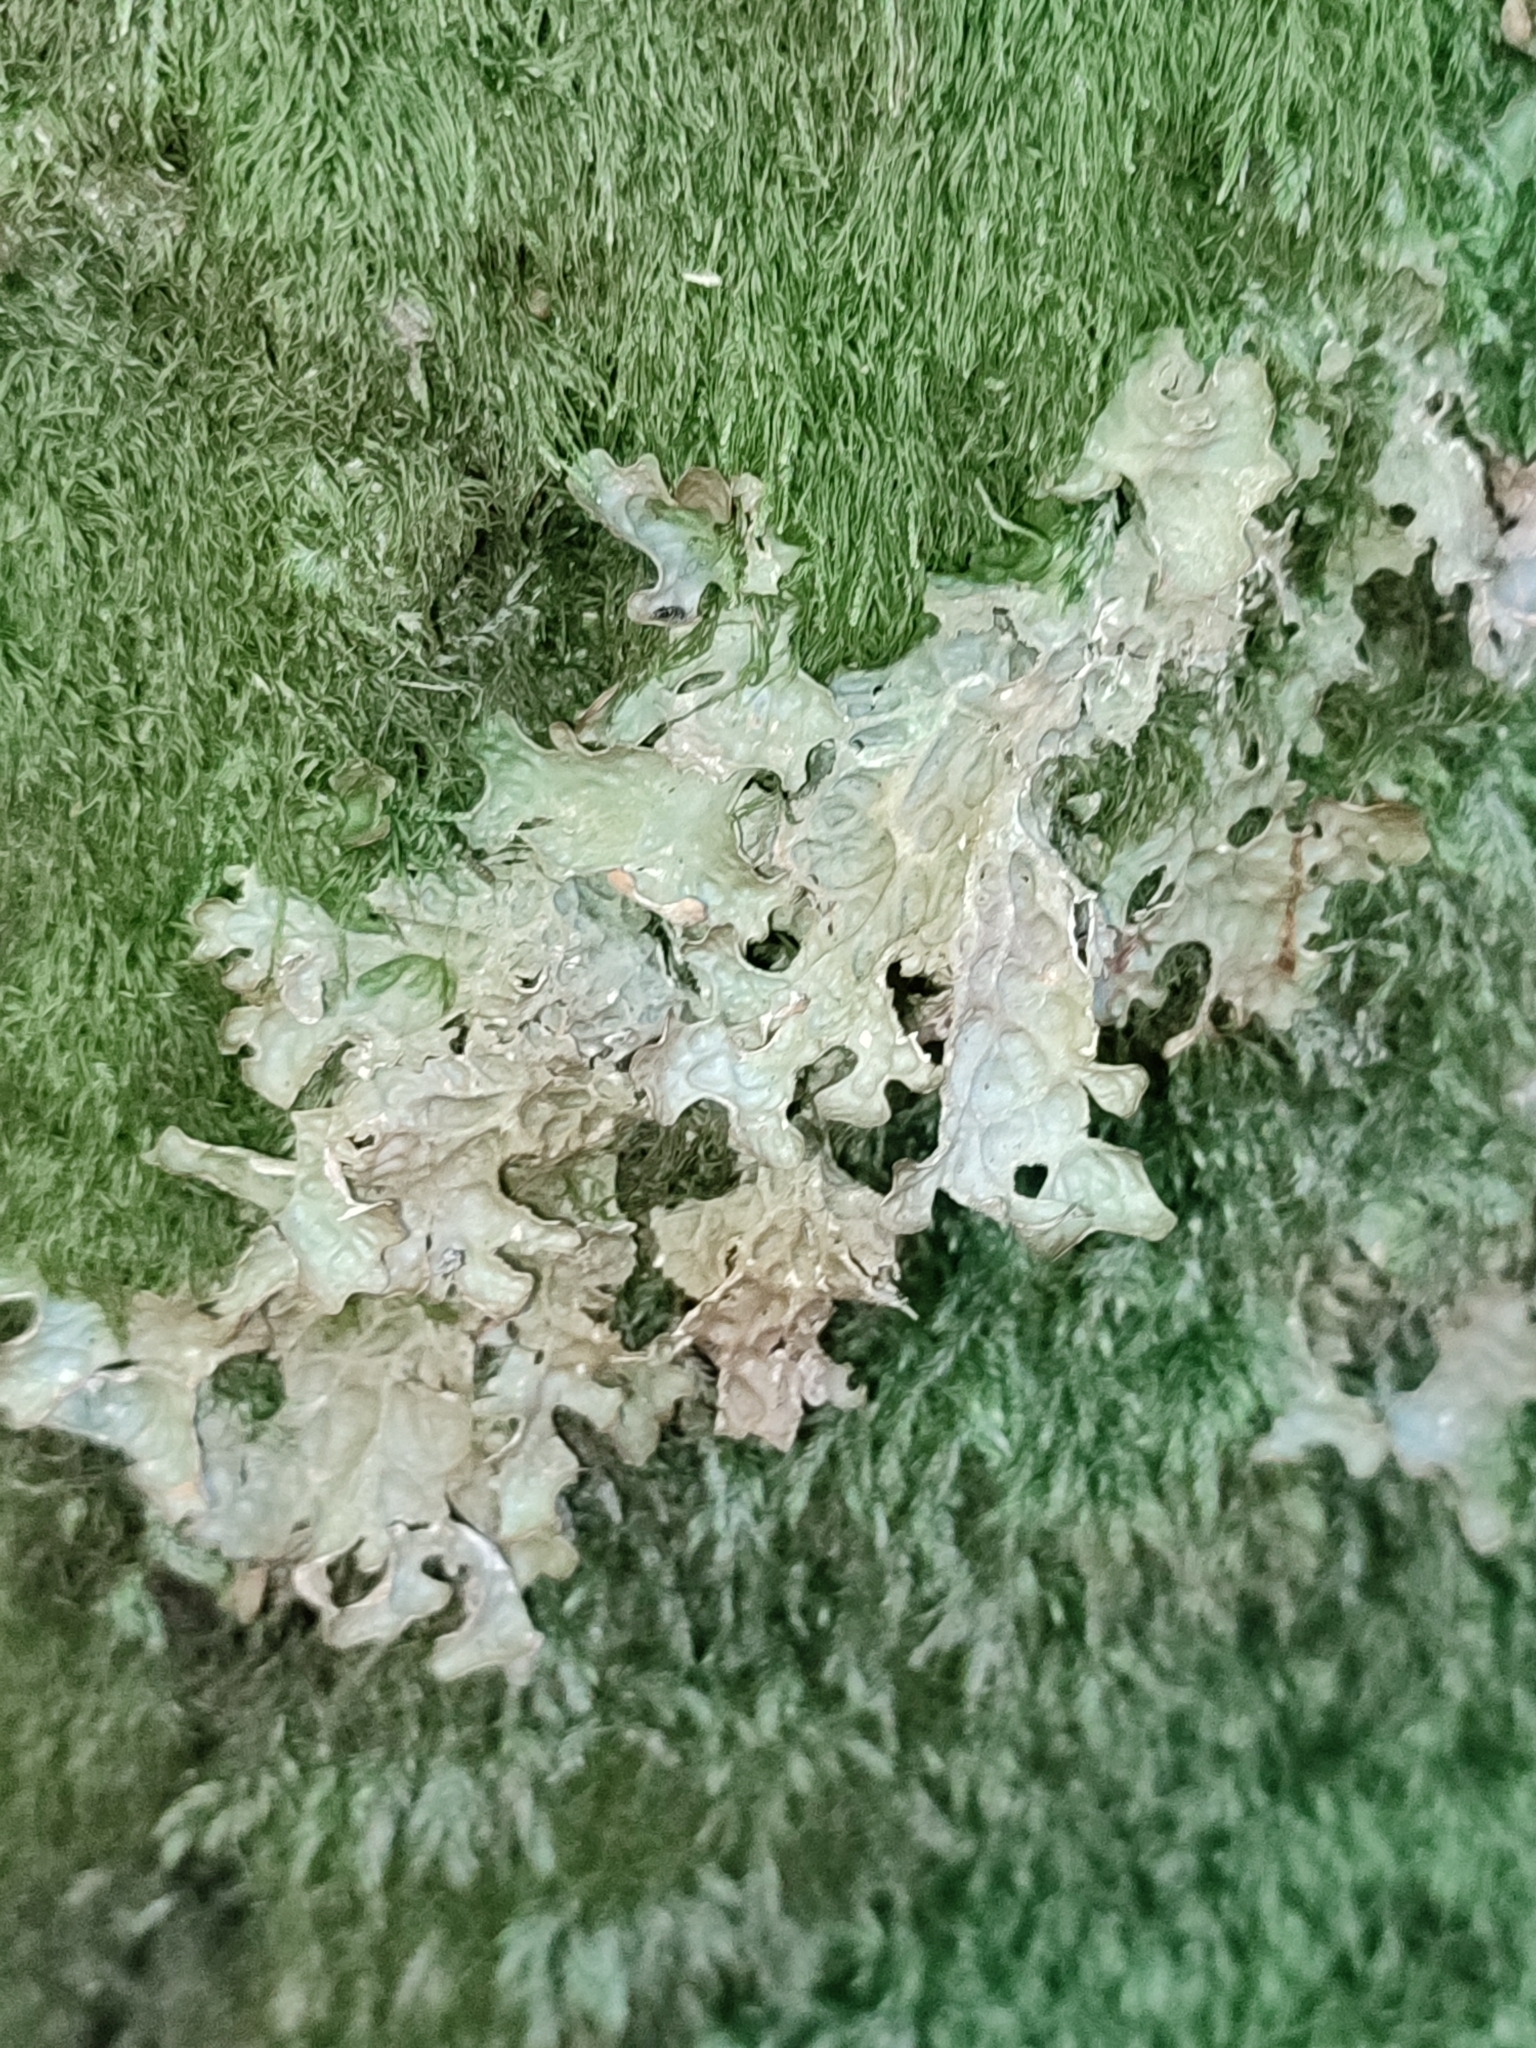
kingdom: Fungi
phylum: Ascomycota
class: Lecanoromycetes
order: Peltigerales
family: Lobariaceae
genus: Lobaria
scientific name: Lobaria pulmonaria
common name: Lungwort
